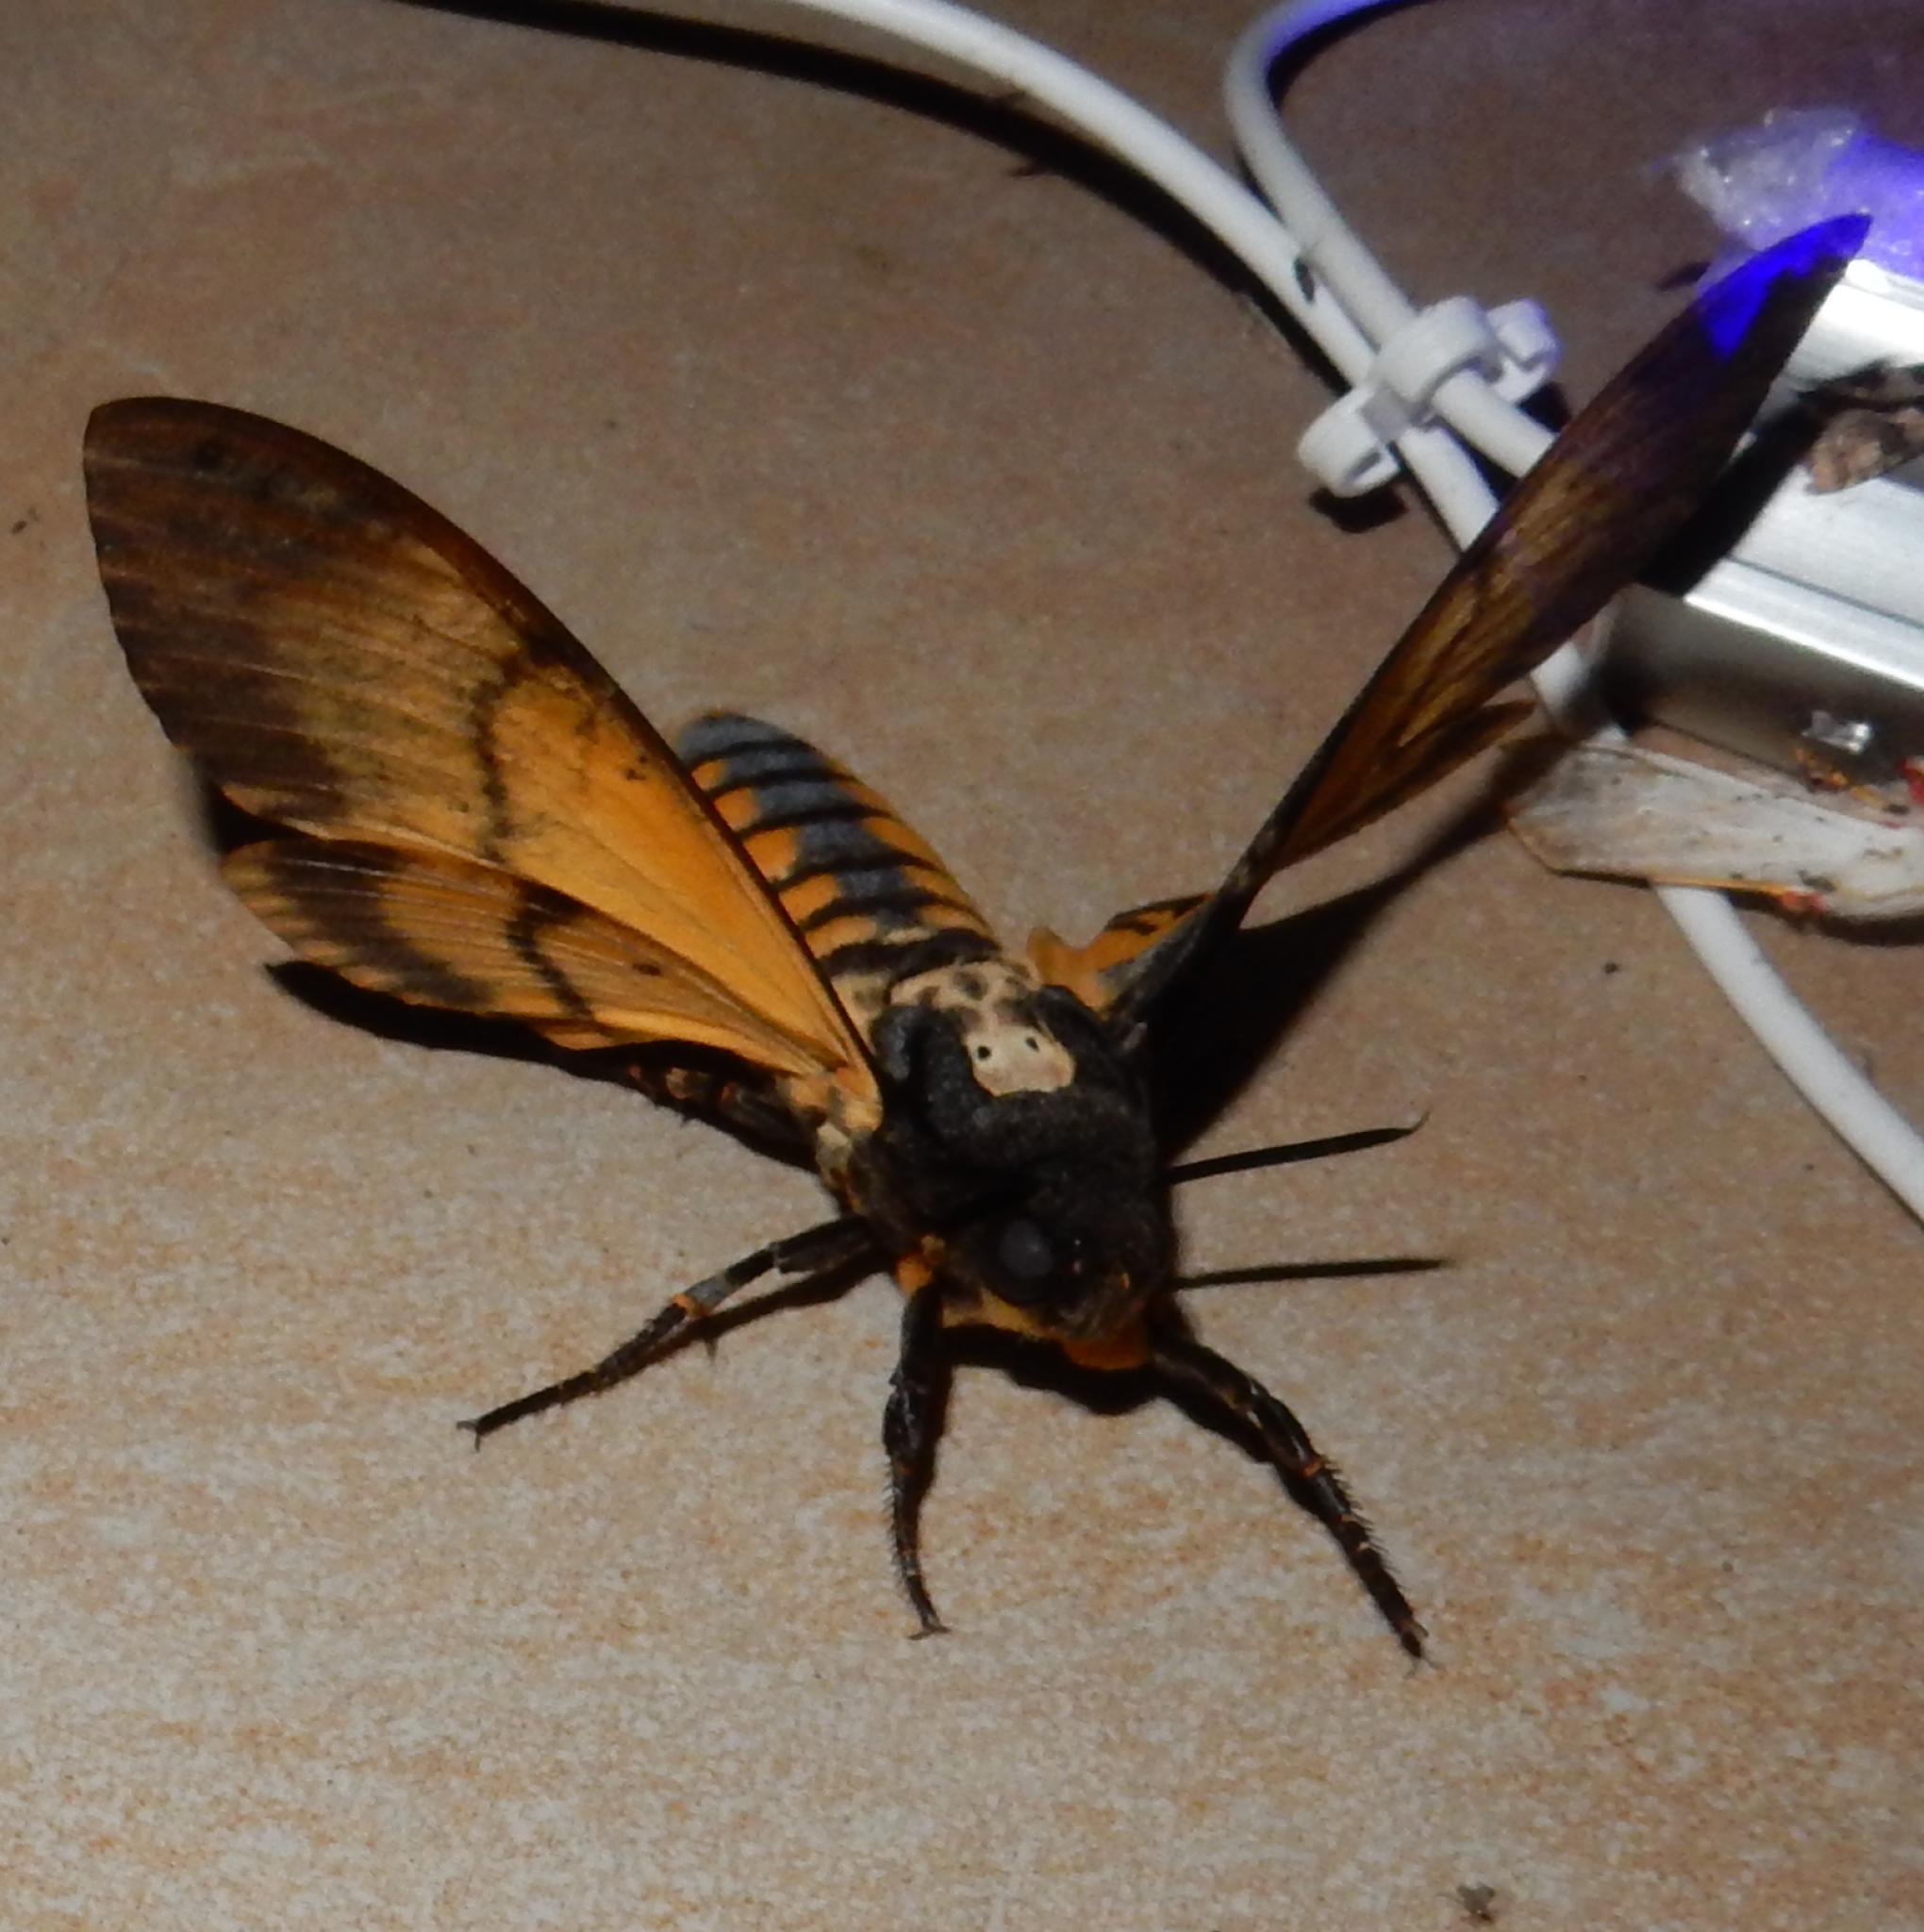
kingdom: Animalia
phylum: Arthropoda
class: Insecta
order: Lepidoptera
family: Sphingidae
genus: Acherontia
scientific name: Acherontia atropos
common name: Death's-head hawk moth
